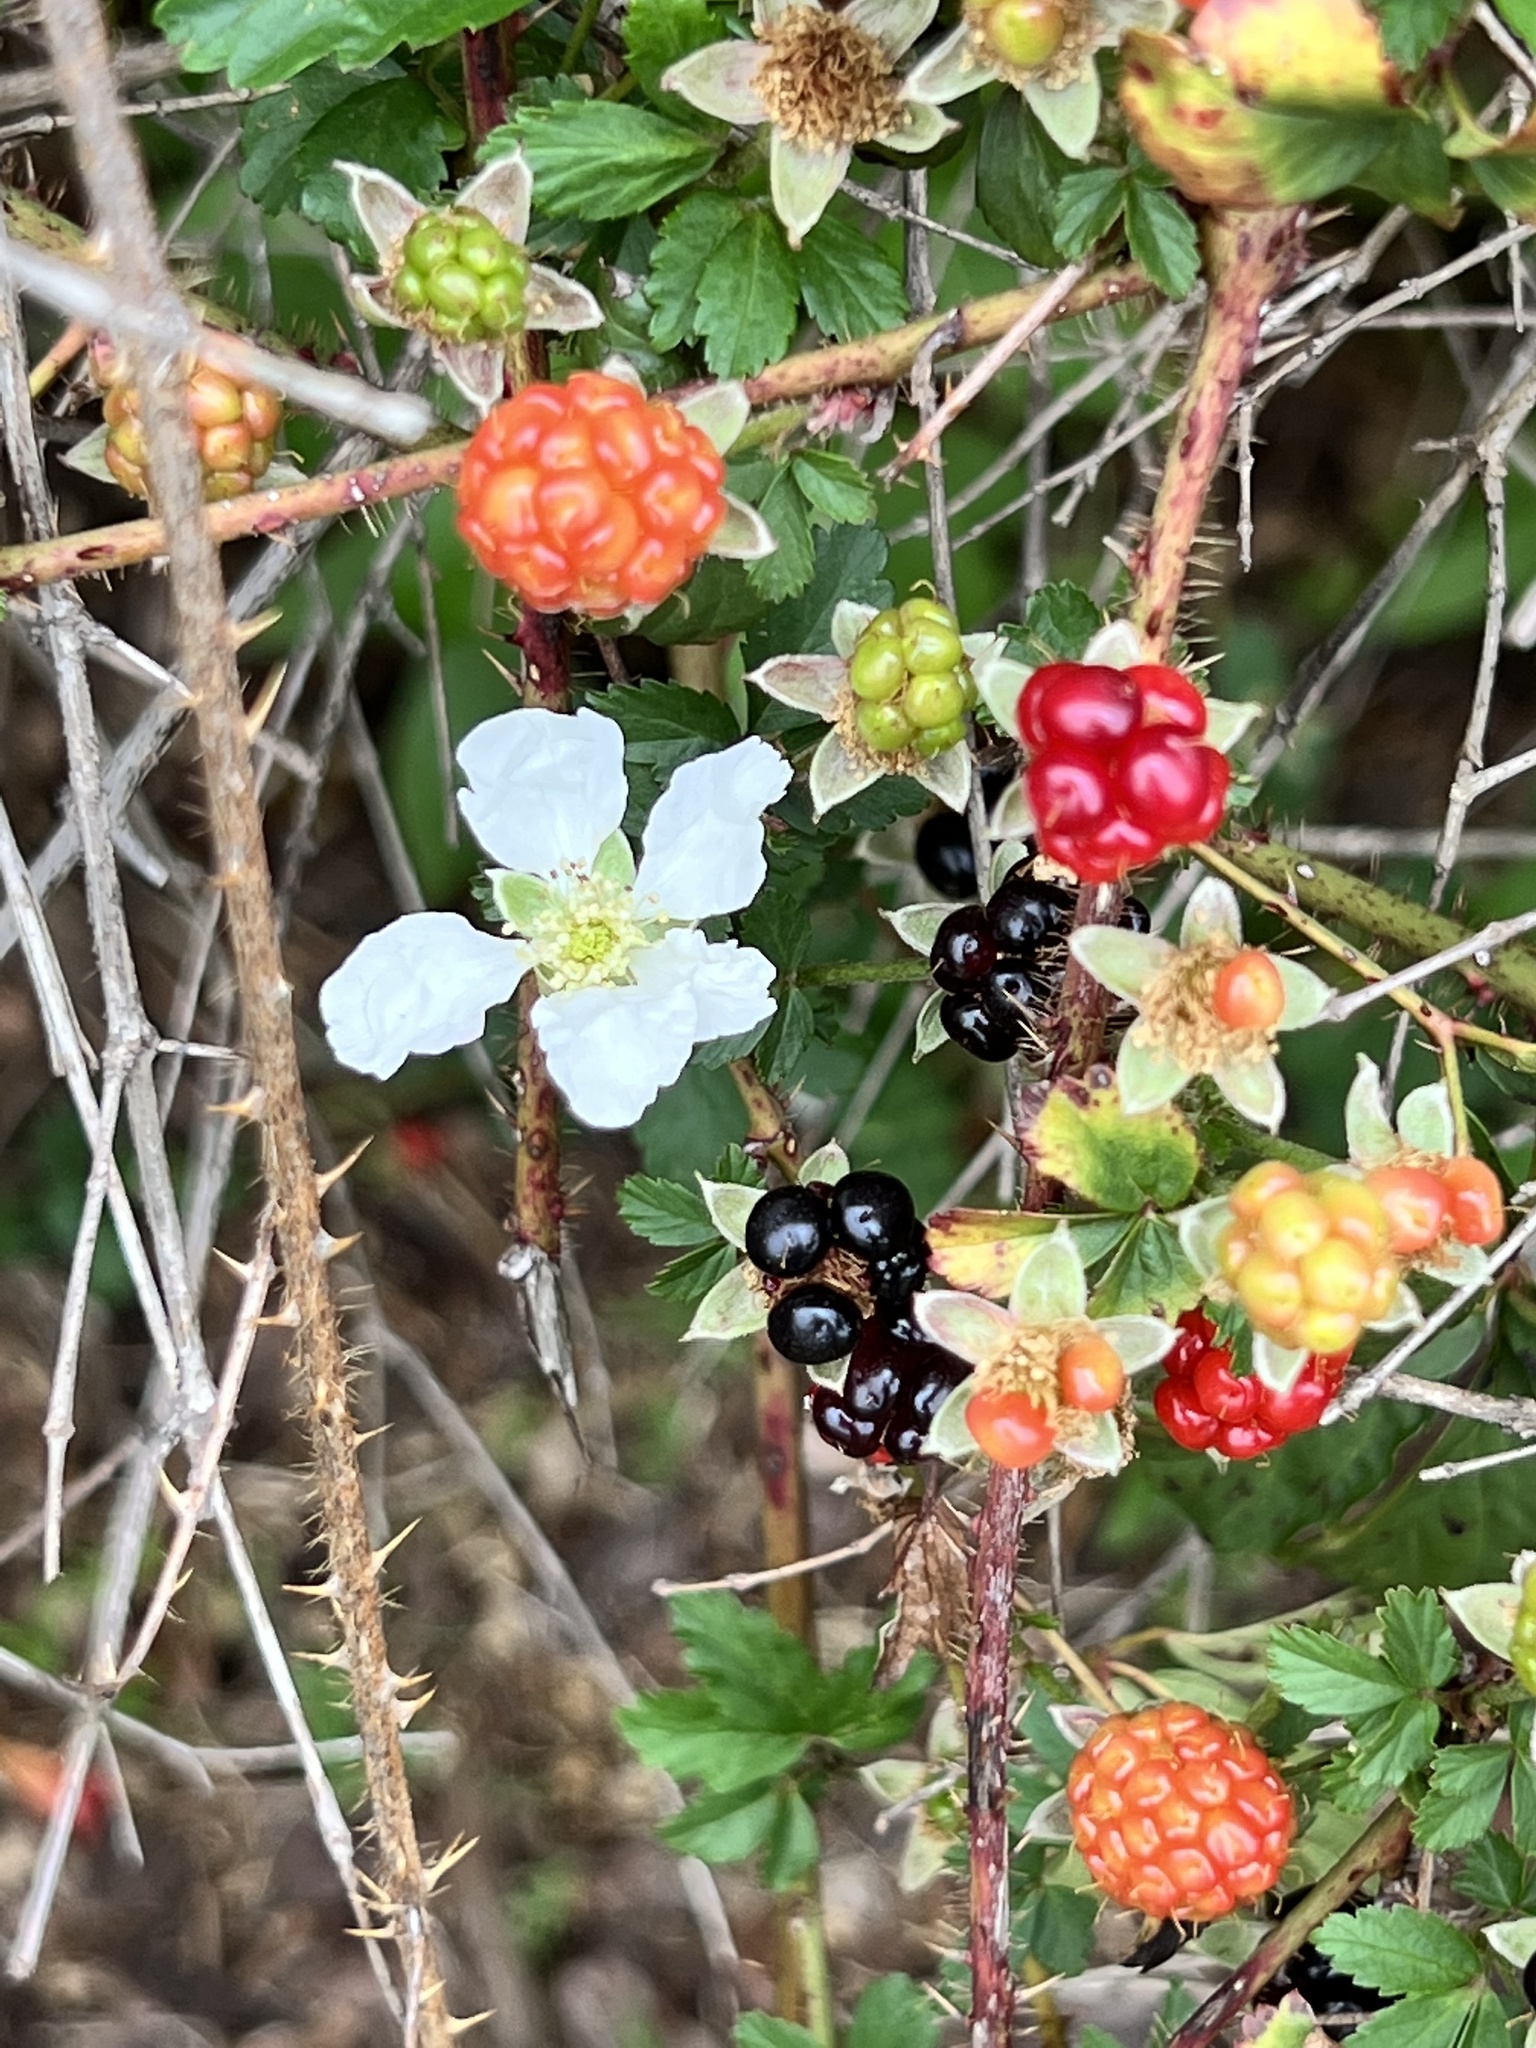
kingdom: Plantae
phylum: Tracheophyta
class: Magnoliopsida
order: Rosales
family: Rosaceae
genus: Rubus
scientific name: Rubus trivialis
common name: Southern dewberry
